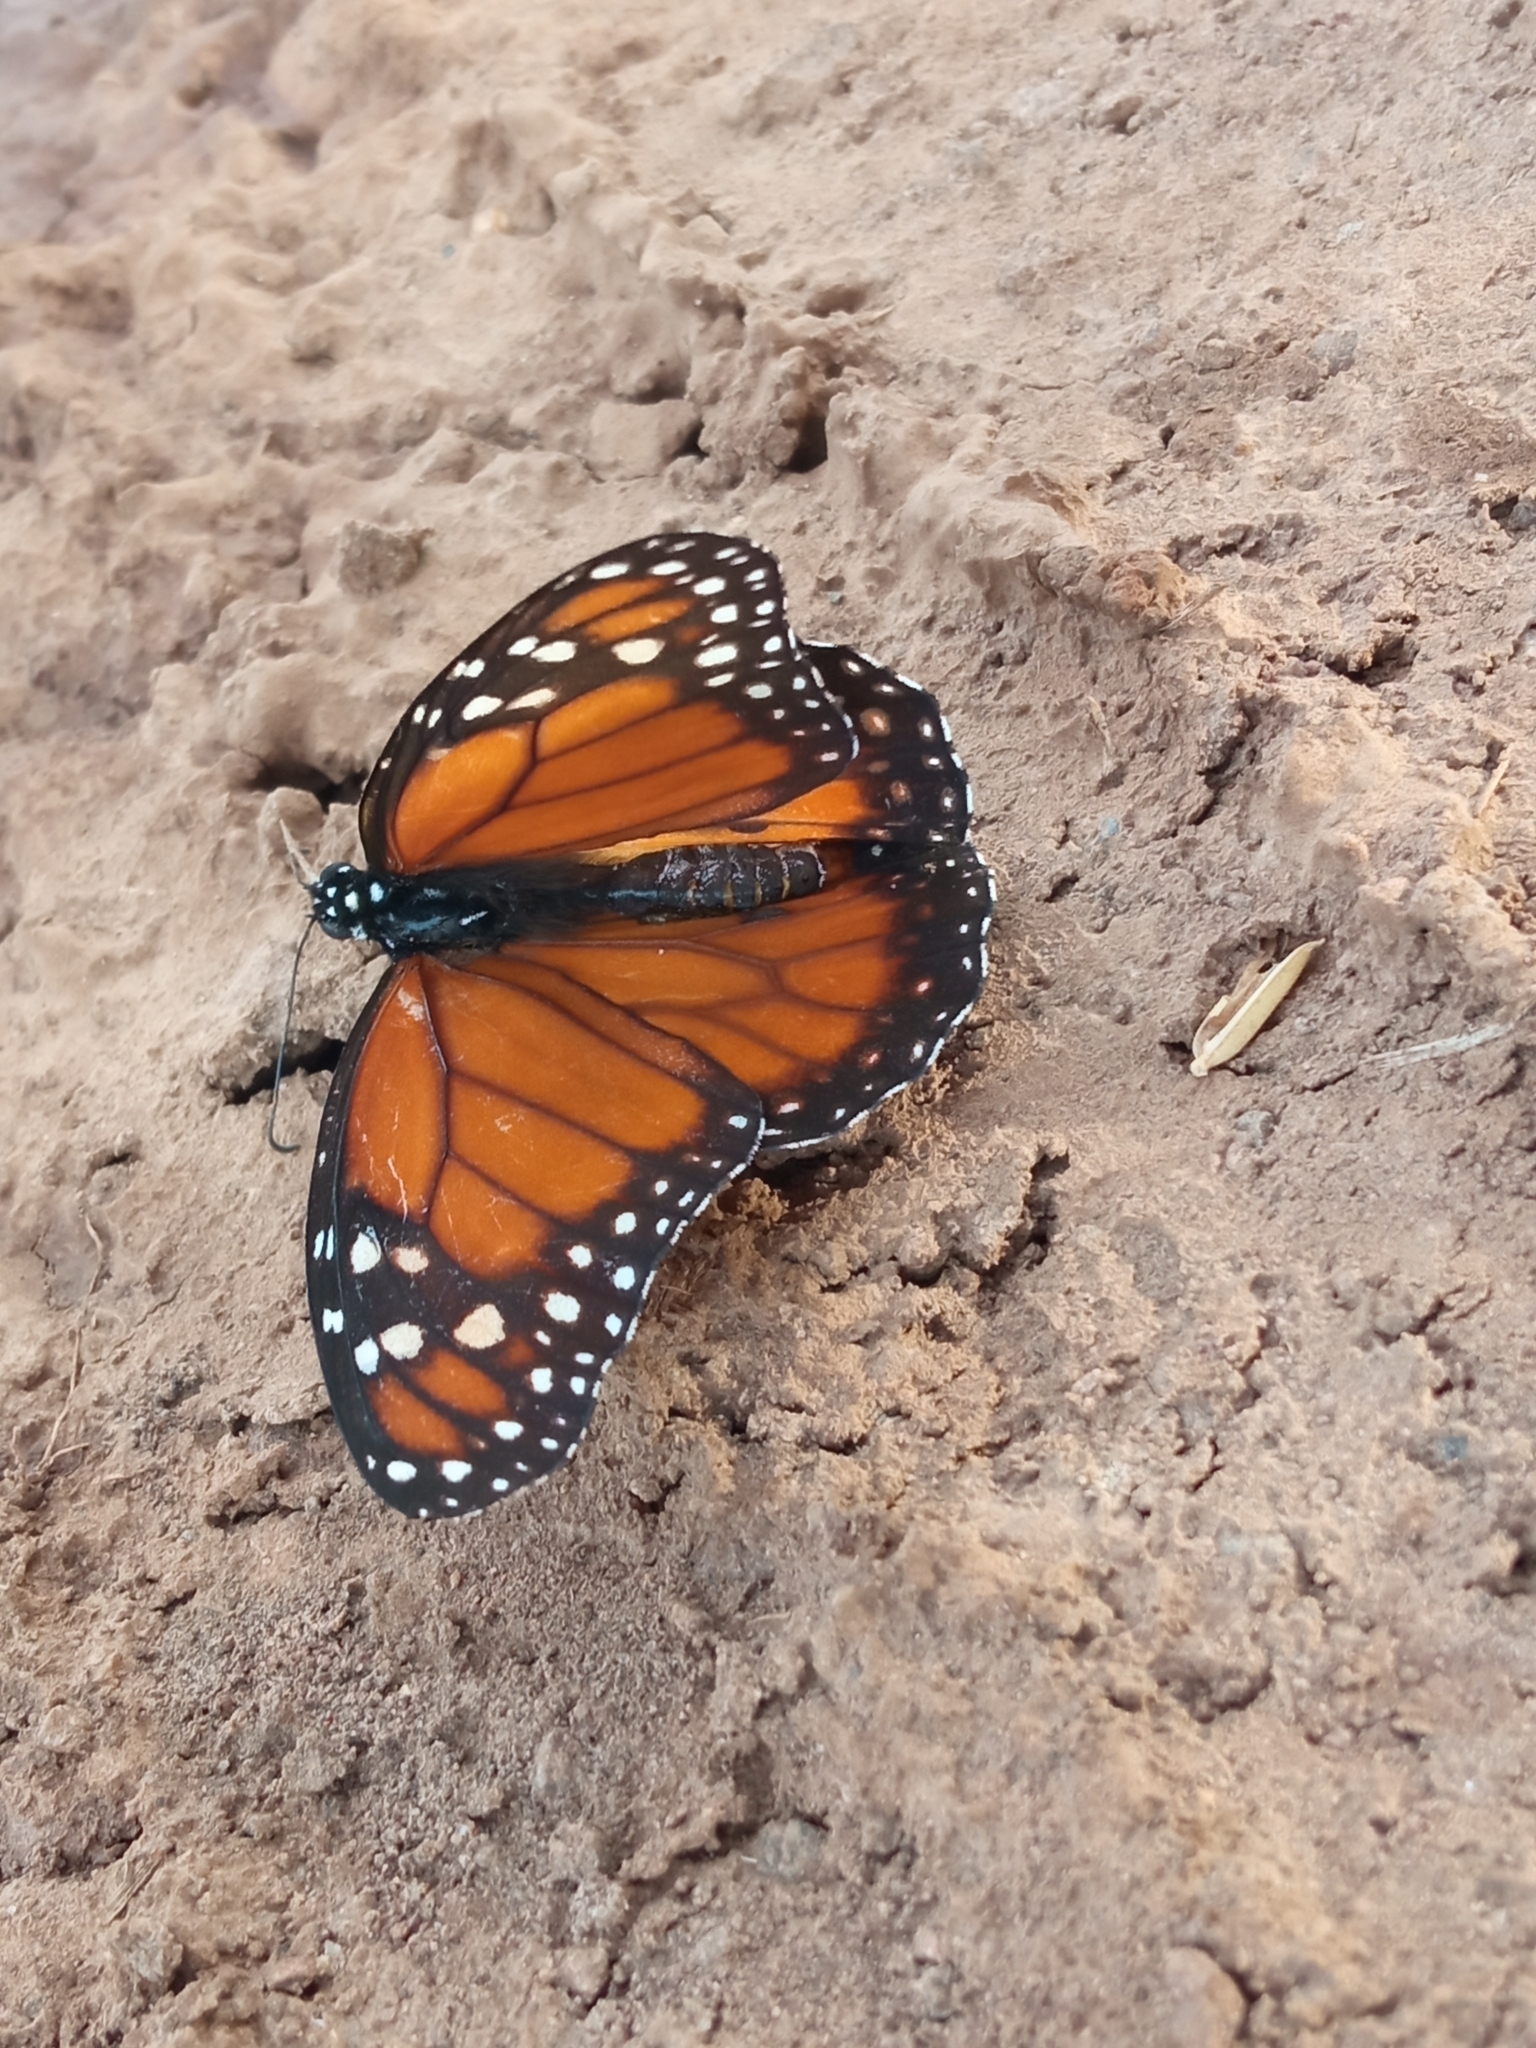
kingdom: Animalia
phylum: Arthropoda
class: Insecta
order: Lepidoptera
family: Nymphalidae
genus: Danaus
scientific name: Danaus erippus
